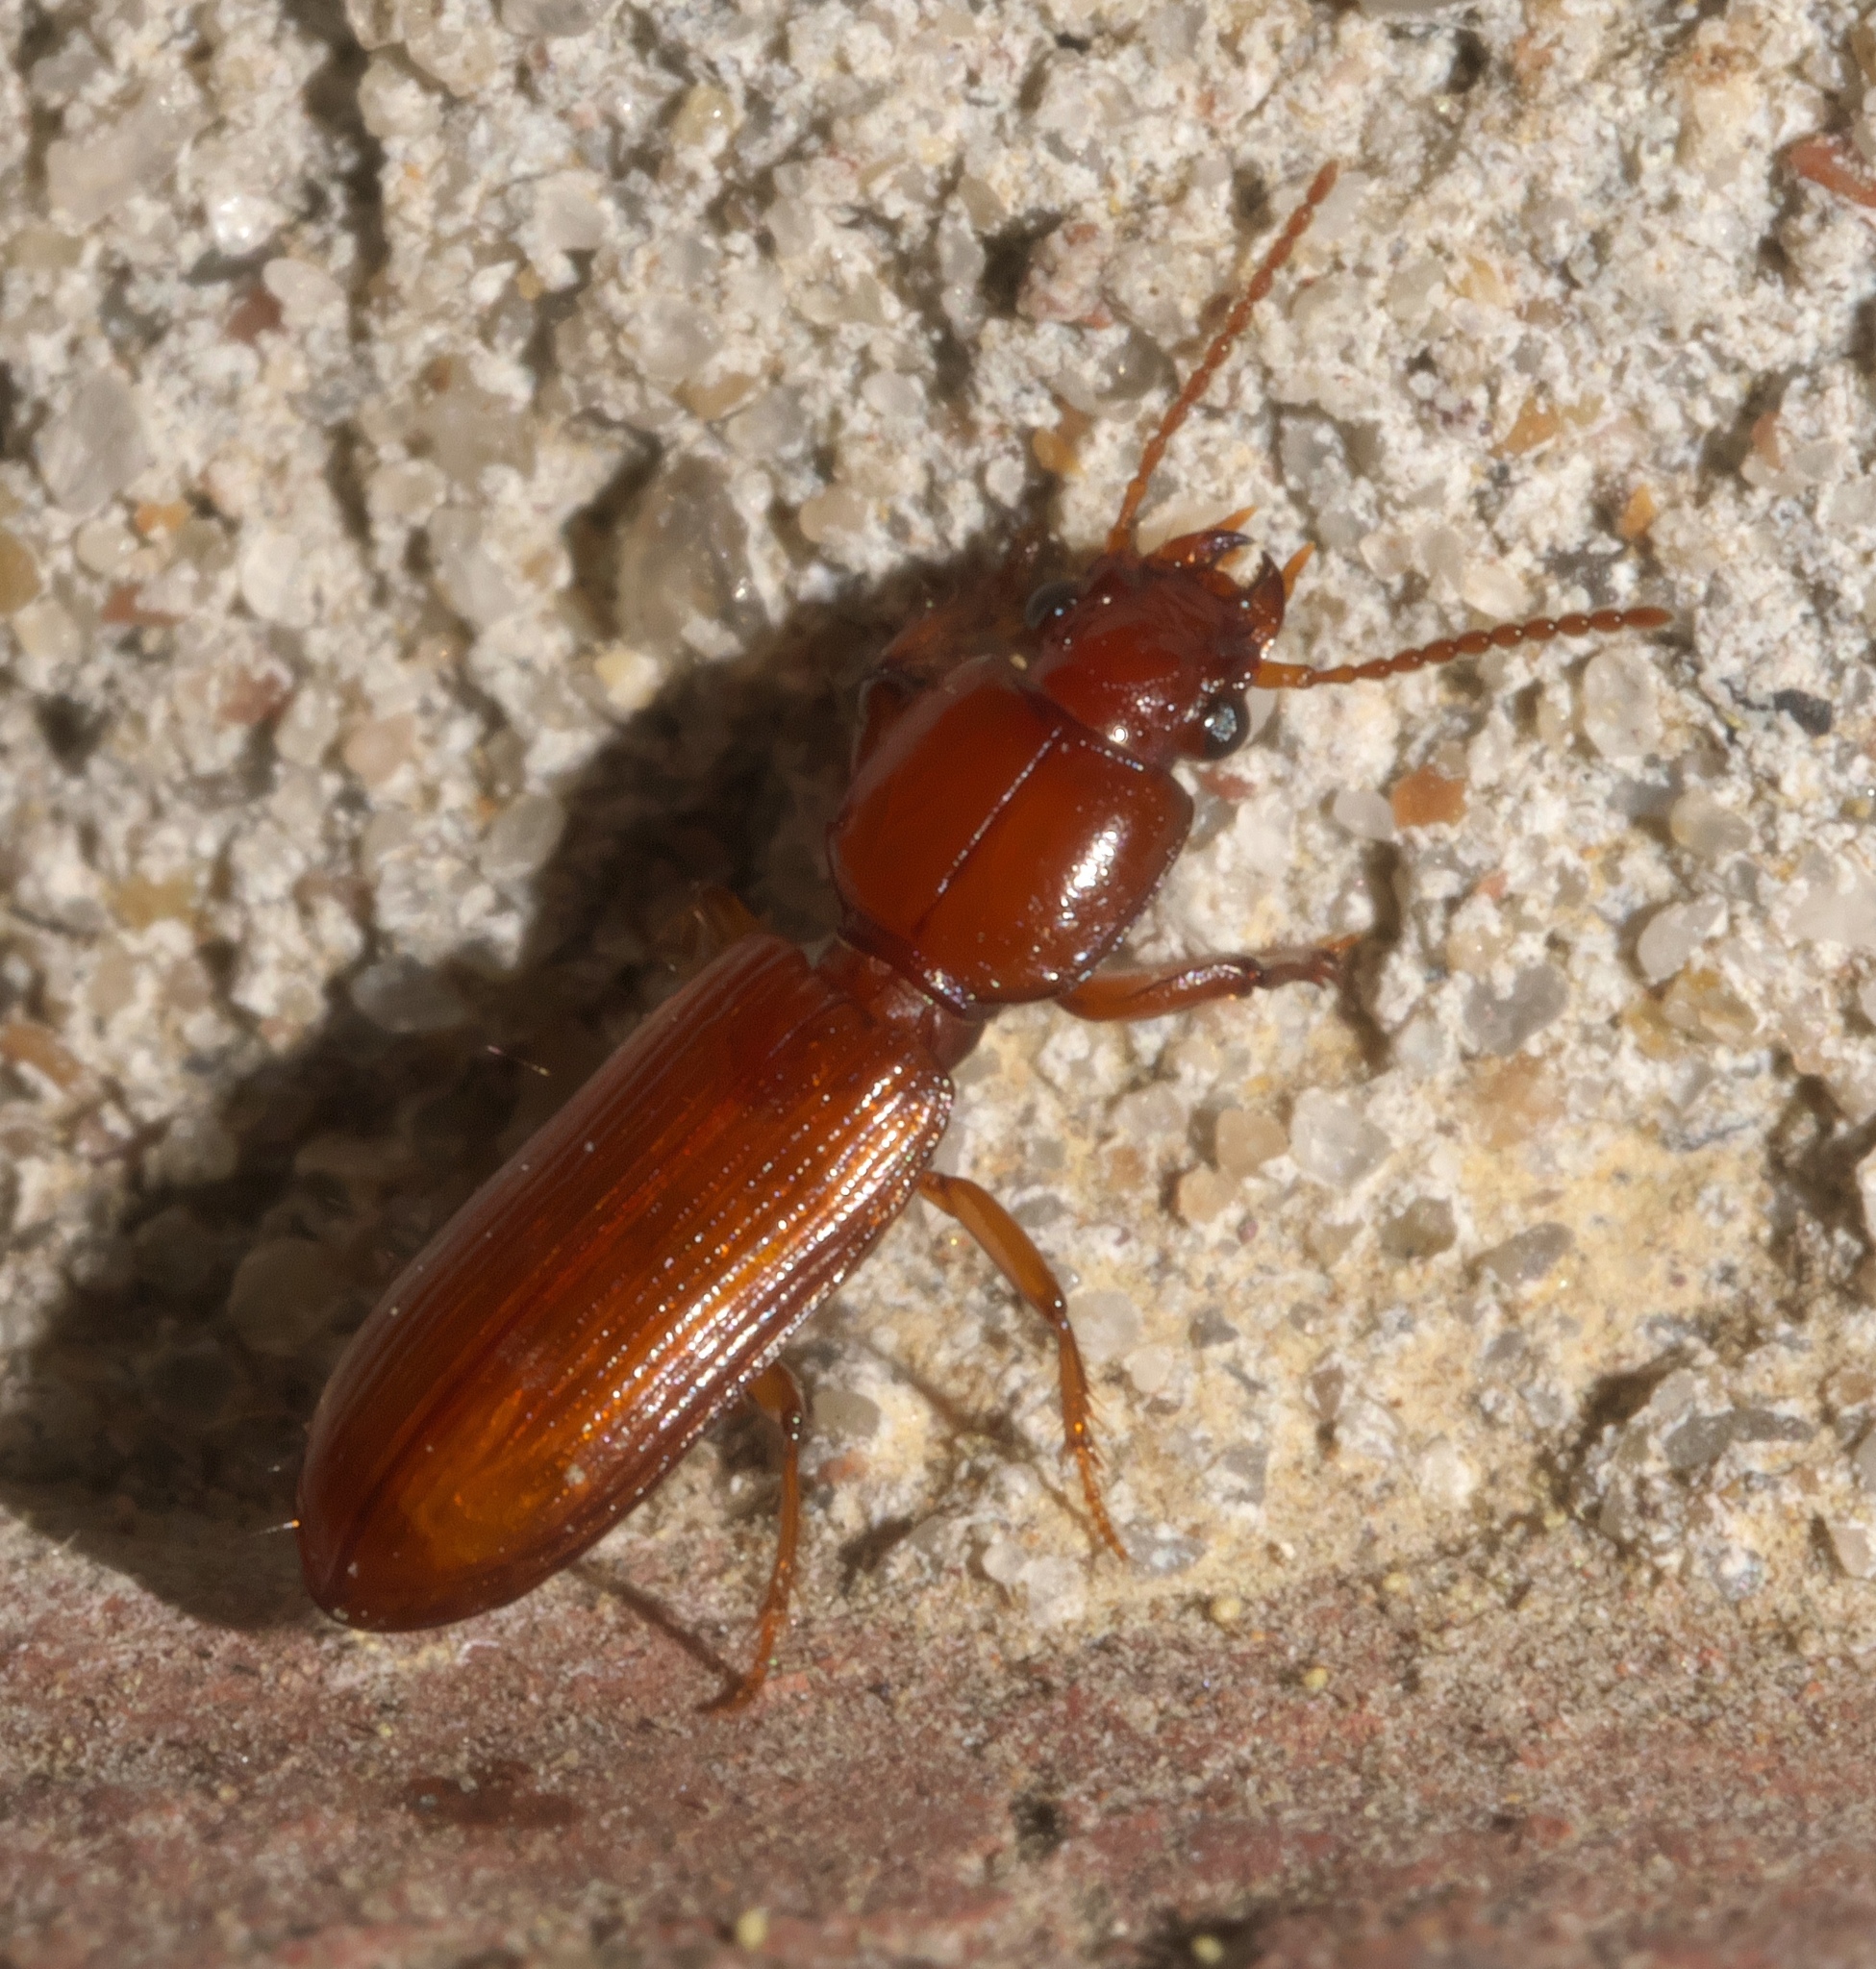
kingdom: Animalia
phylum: Arthropoda
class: Insecta
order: Coleoptera
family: Carabidae
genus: Clivina
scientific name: Clivina planicollis
